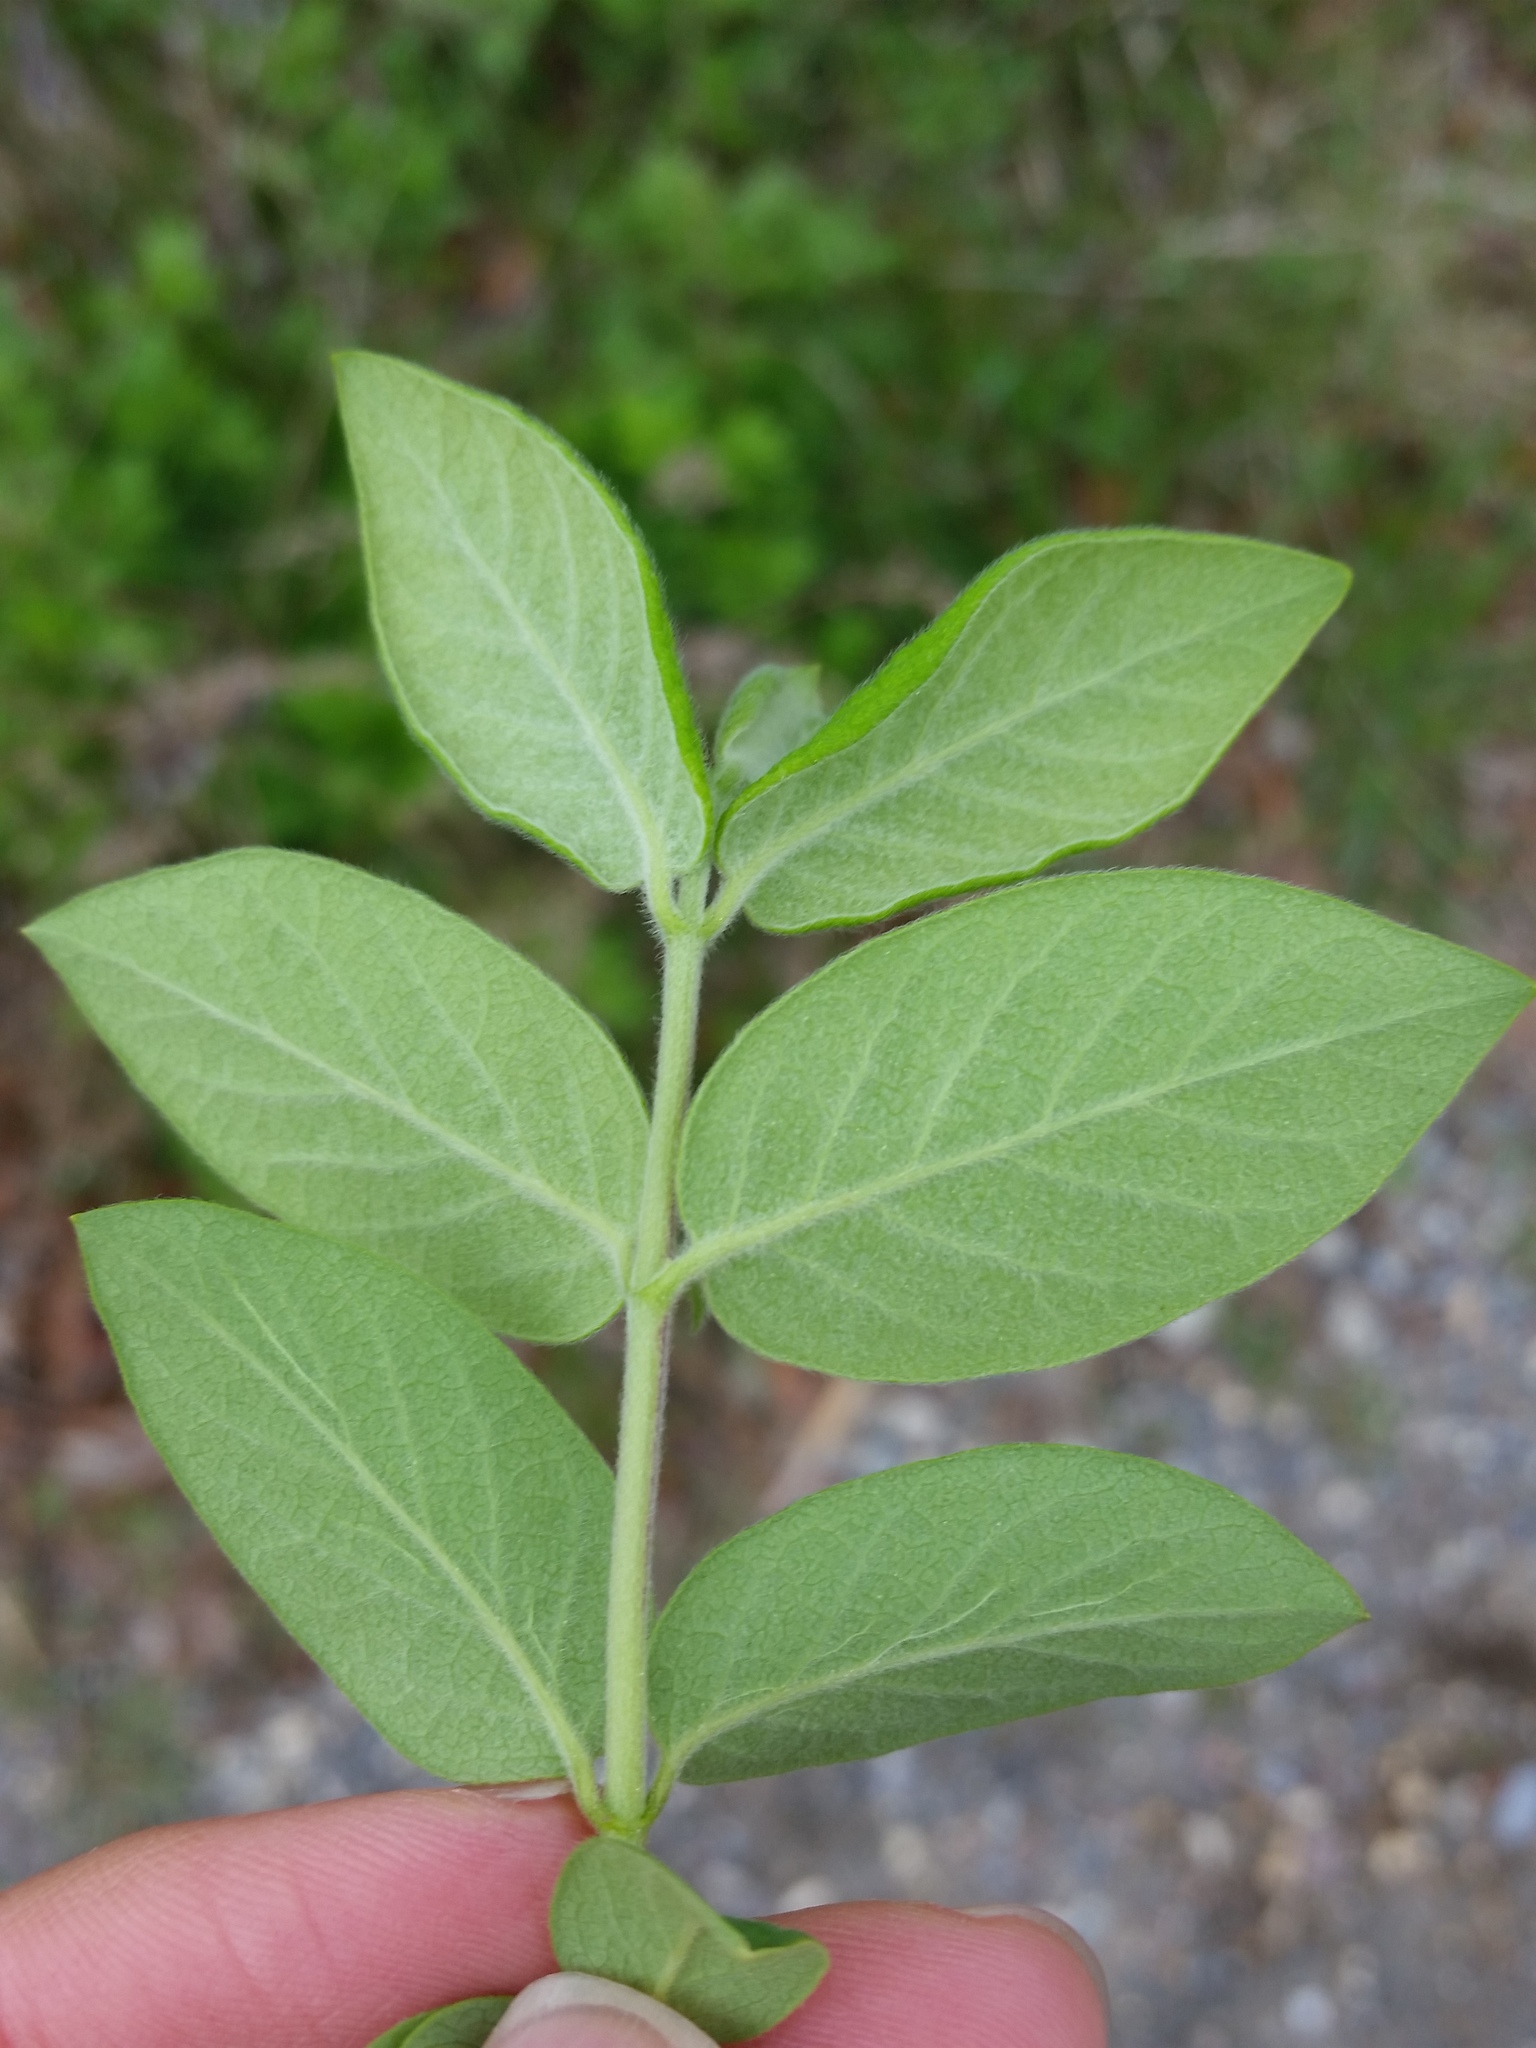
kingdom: Plantae
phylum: Tracheophyta
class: Magnoliopsida
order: Dipsacales
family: Caprifoliaceae
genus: Lonicera
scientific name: Lonicera morrowii
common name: Morrow's honeysuckle
